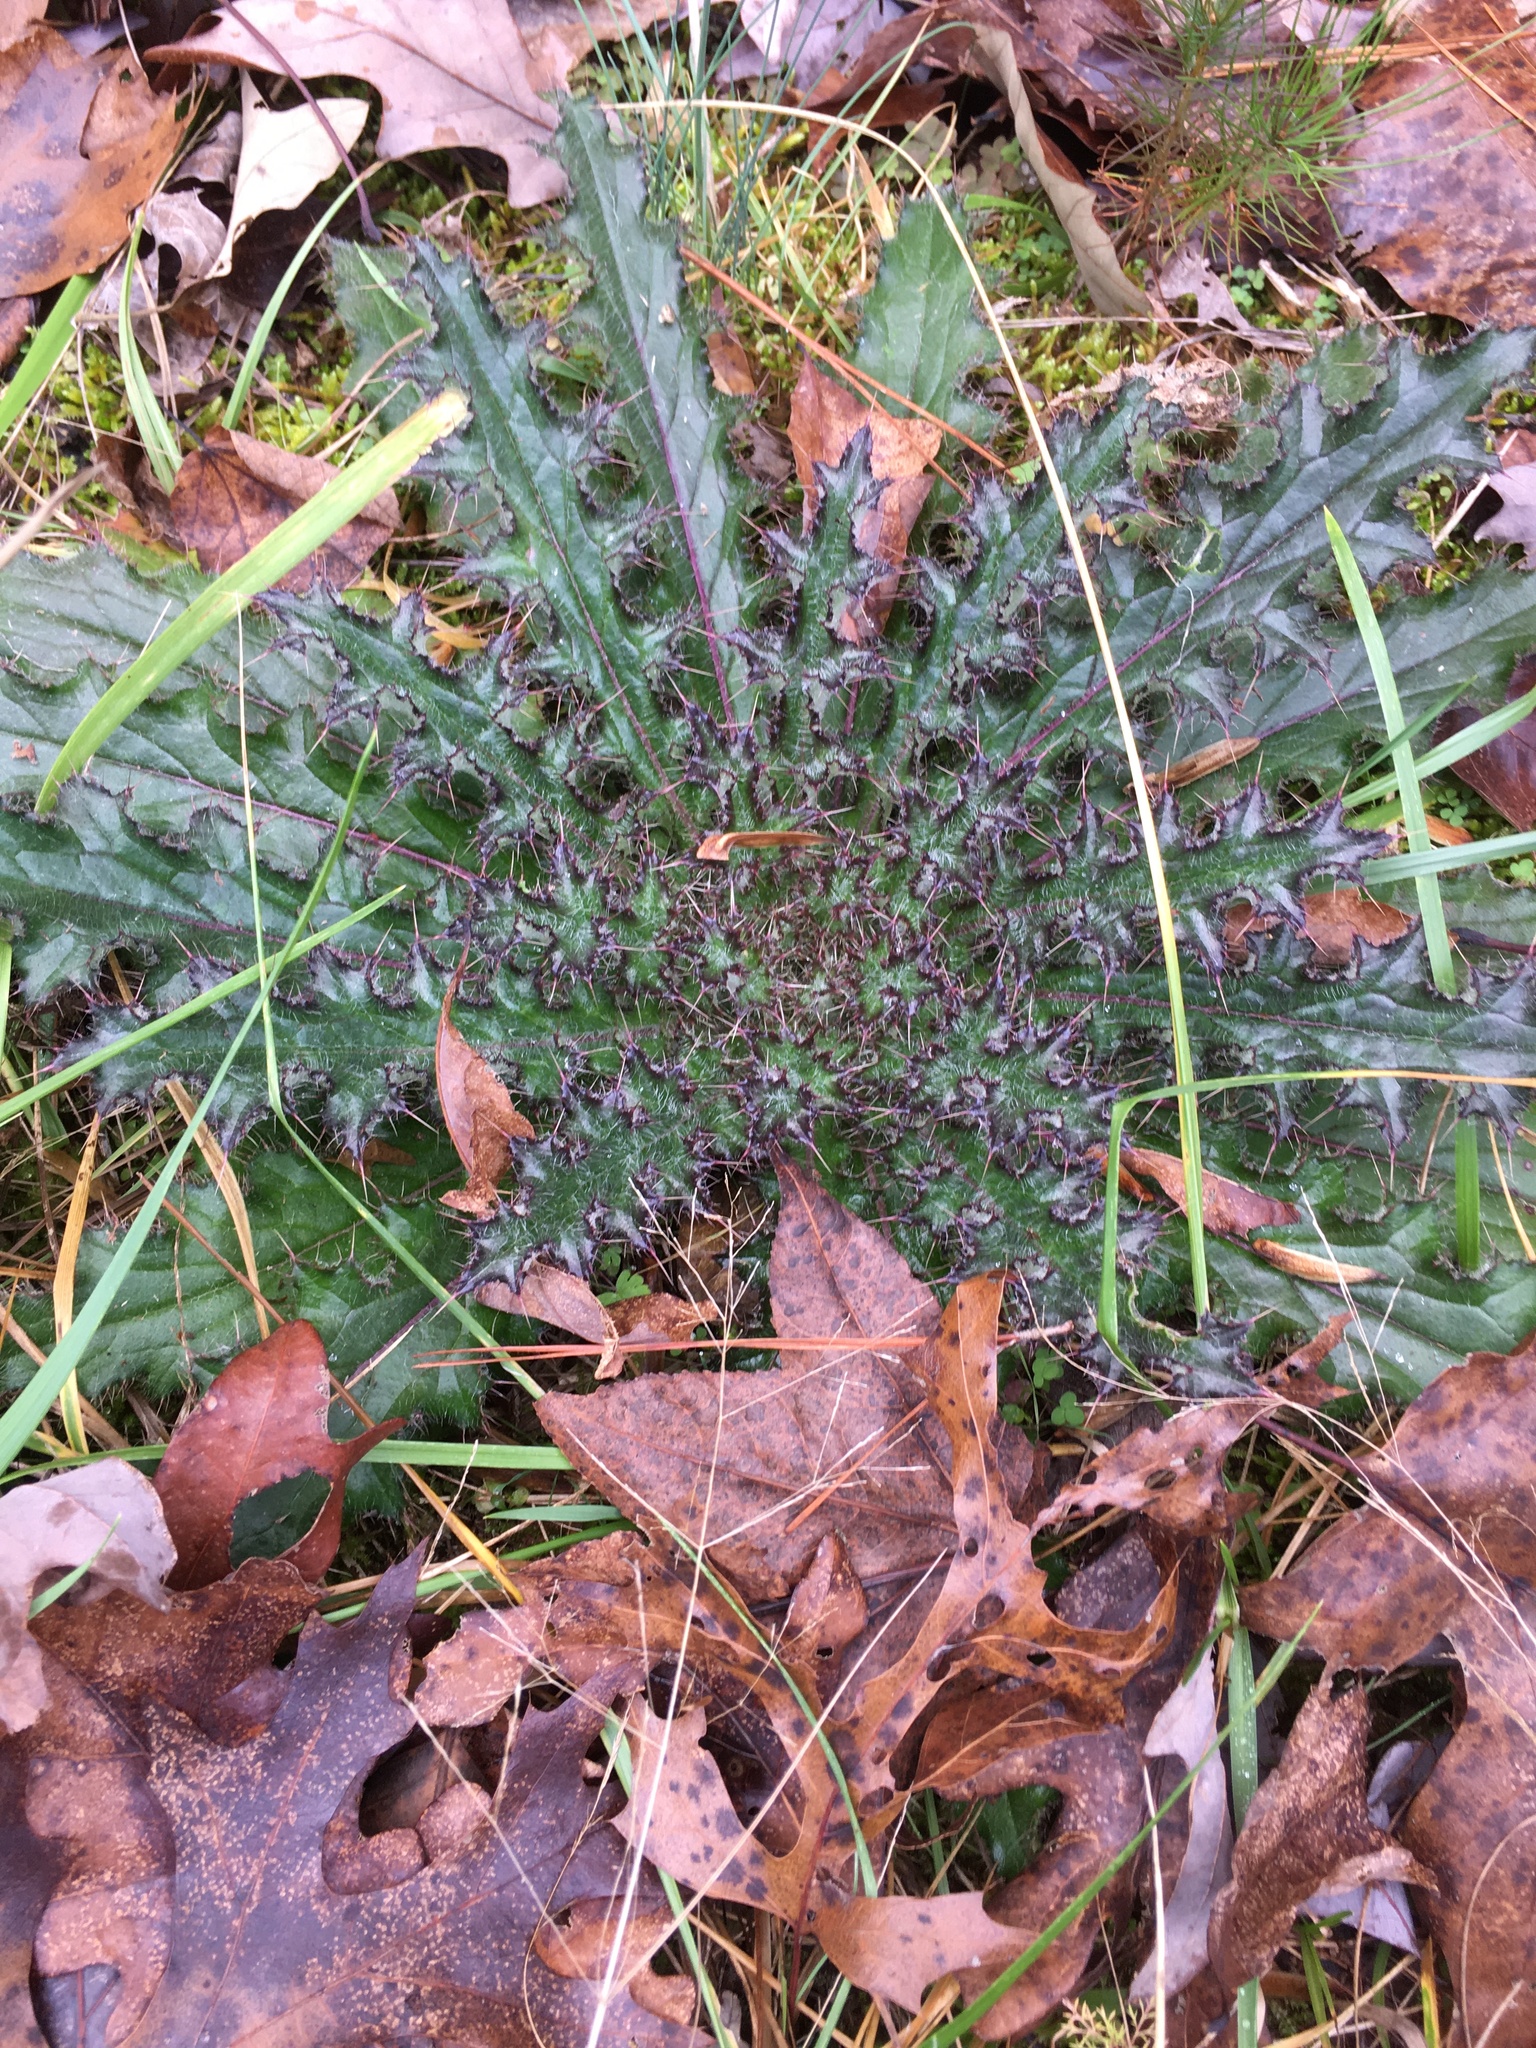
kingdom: Plantae
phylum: Tracheophyta
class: Magnoliopsida
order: Asterales
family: Asteraceae
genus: Cirsium
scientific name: Cirsium horridulum
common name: Bristly thistle
